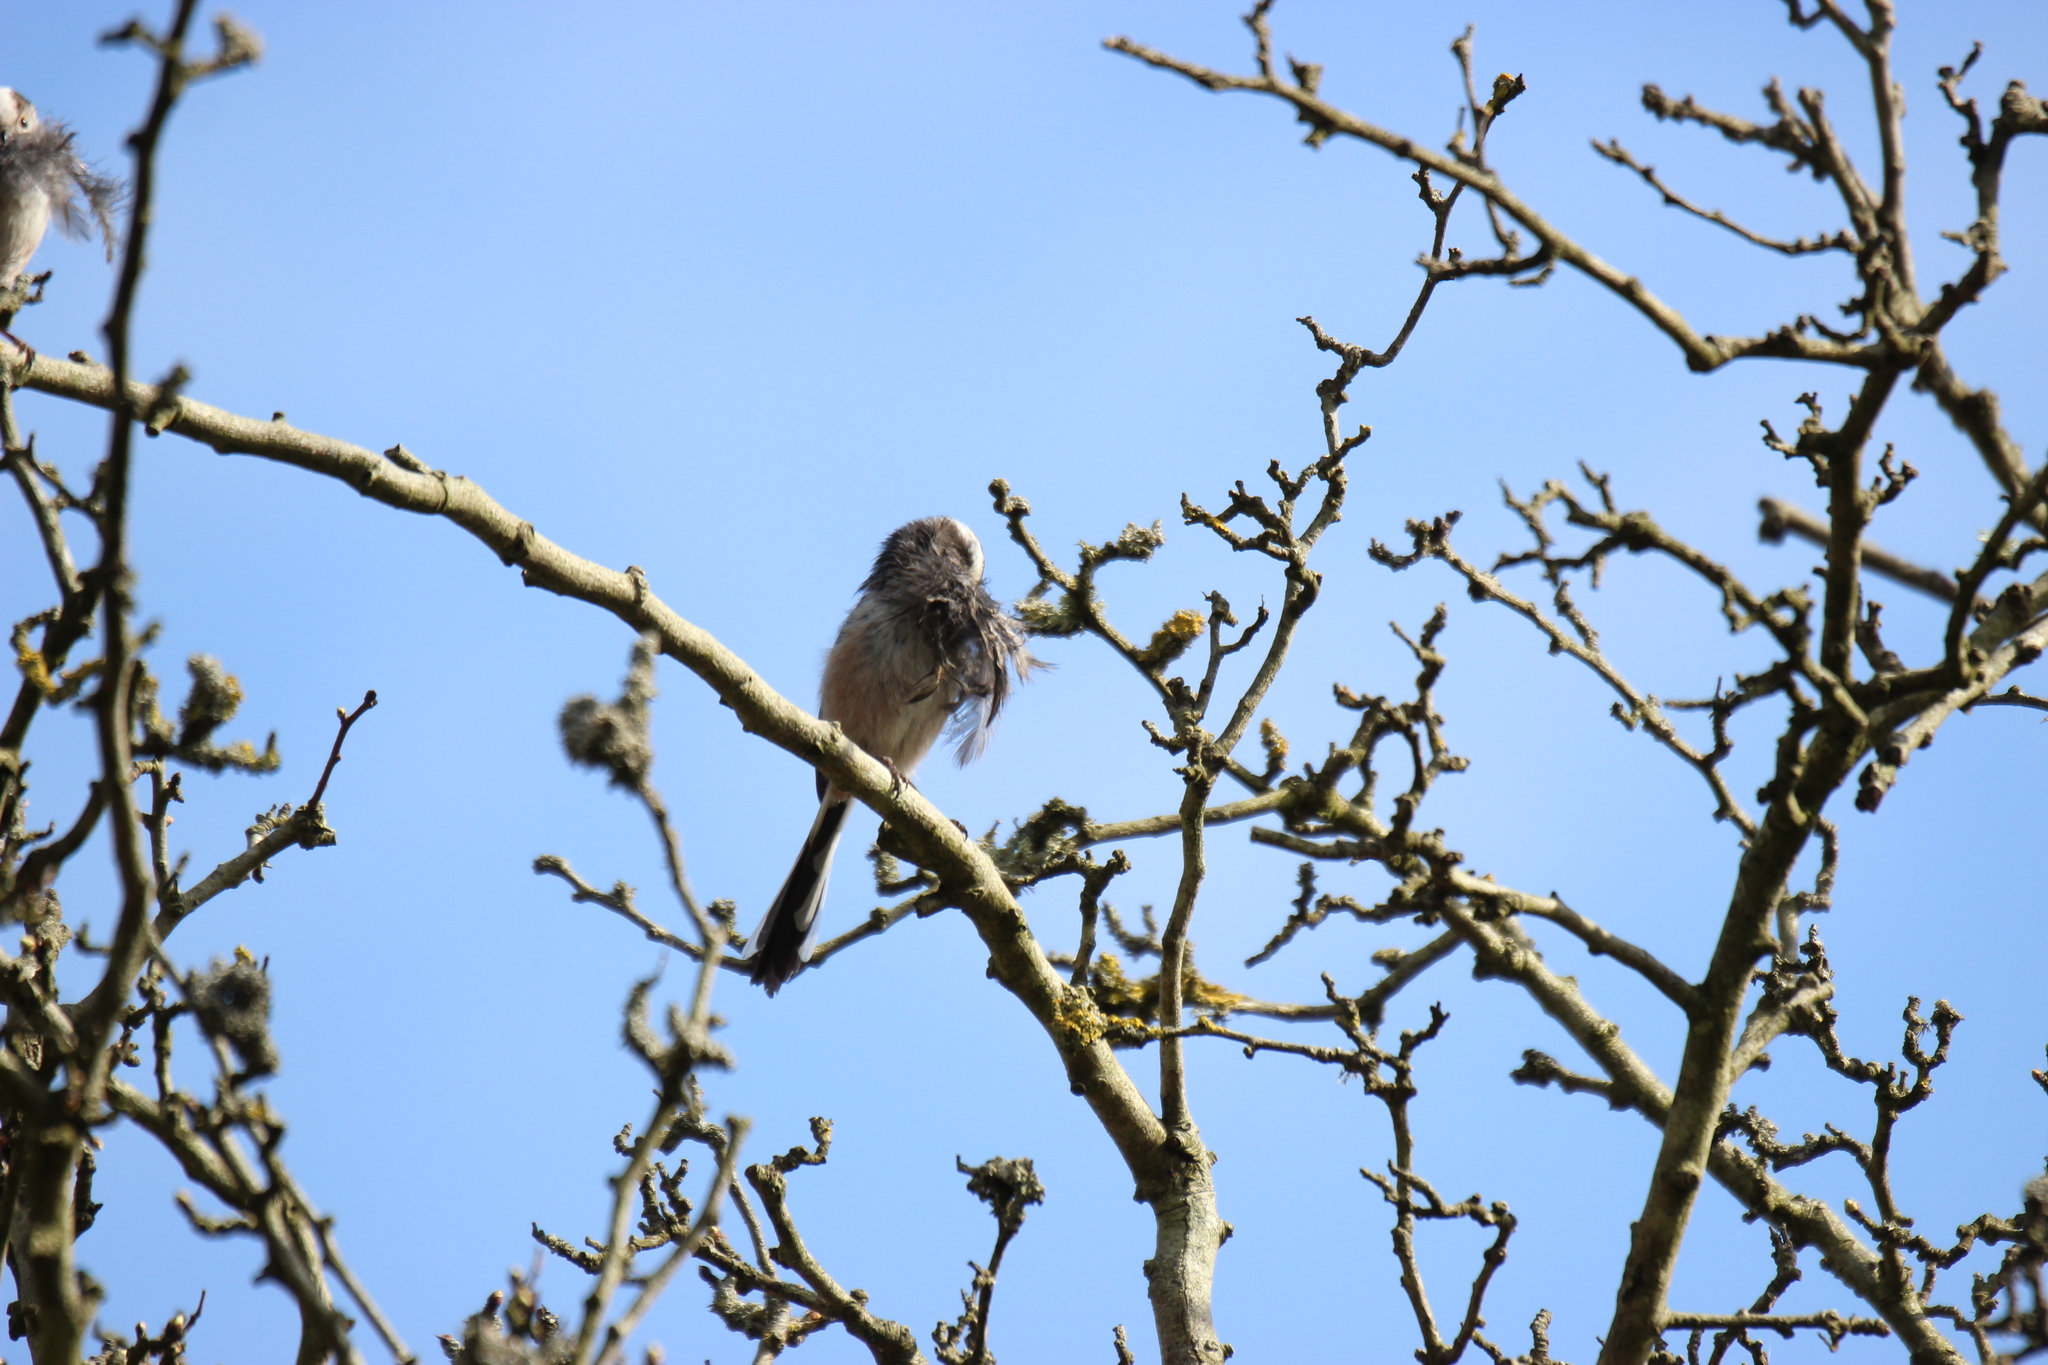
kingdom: Animalia
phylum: Chordata
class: Aves
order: Passeriformes
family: Aegithalidae
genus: Aegithalos
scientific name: Aegithalos caudatus
